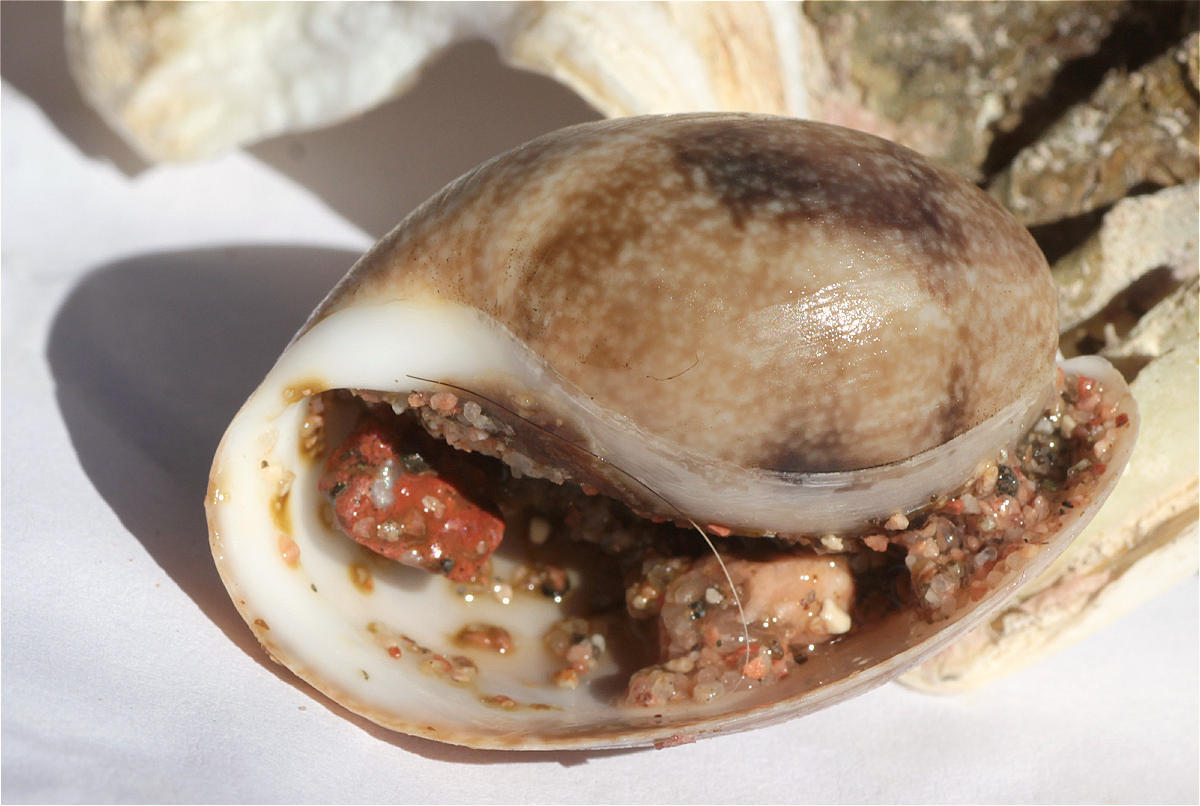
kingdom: Animalia
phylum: Mollusca
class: Gastropoda
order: Cephalaspidea
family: Bullidae
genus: Bulla
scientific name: Bulla ampulla
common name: Ampulle bubble
